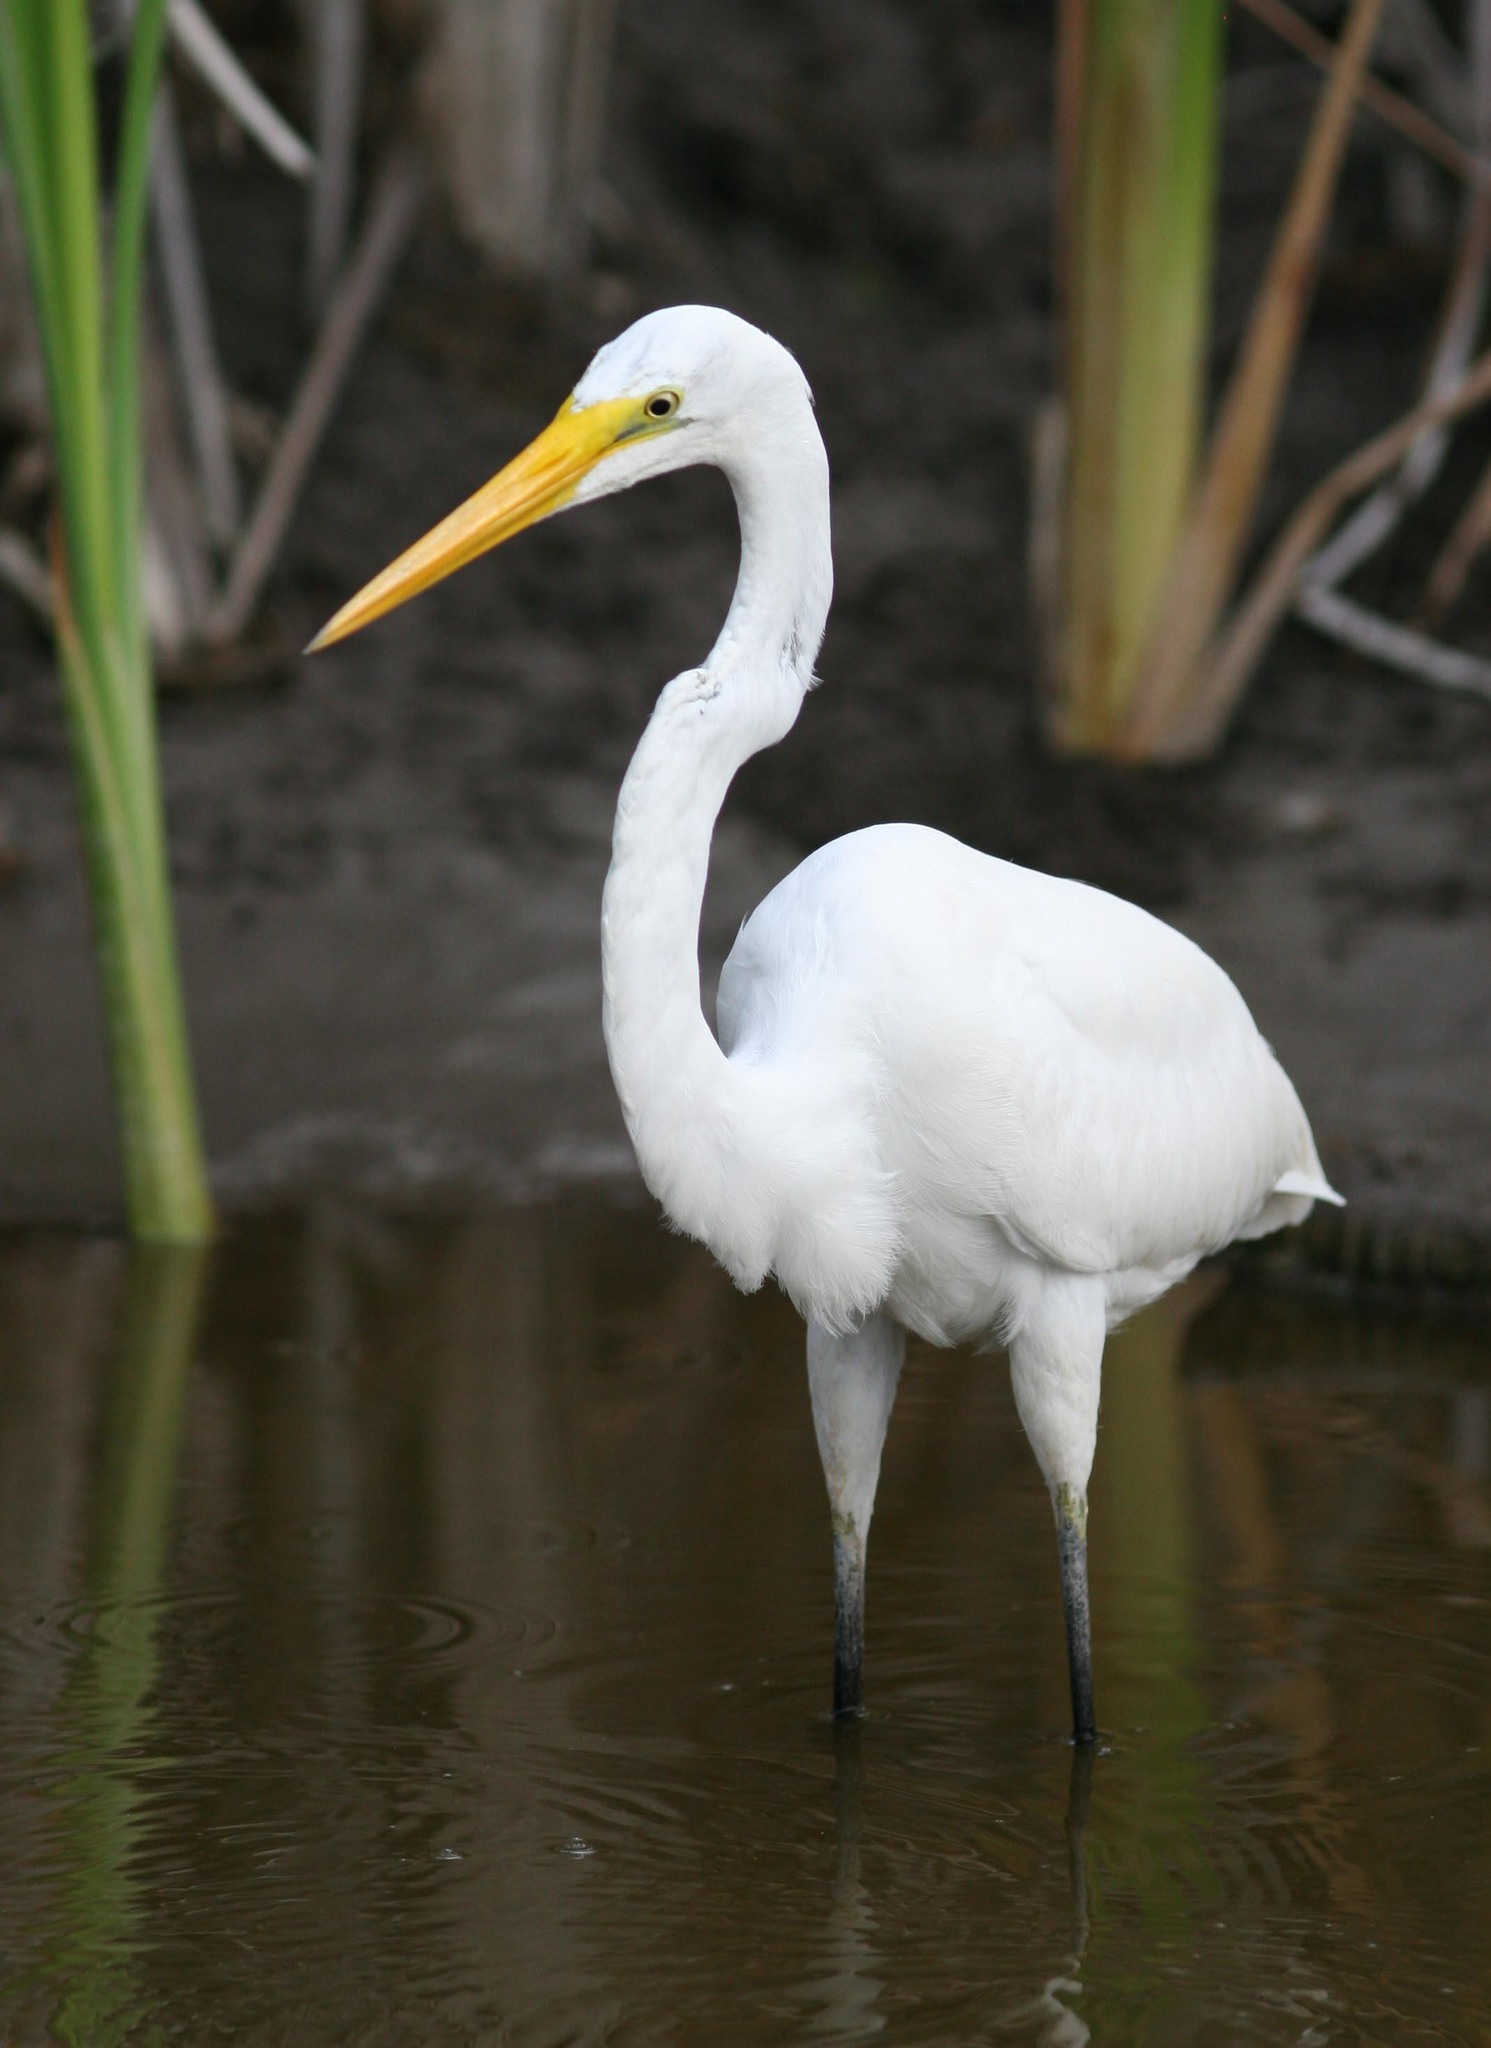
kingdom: Animalia
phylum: Chordata
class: Aves
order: Pelecaniformes
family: Ardeidae
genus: Ardea
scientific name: Ardea alba
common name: Great egret
